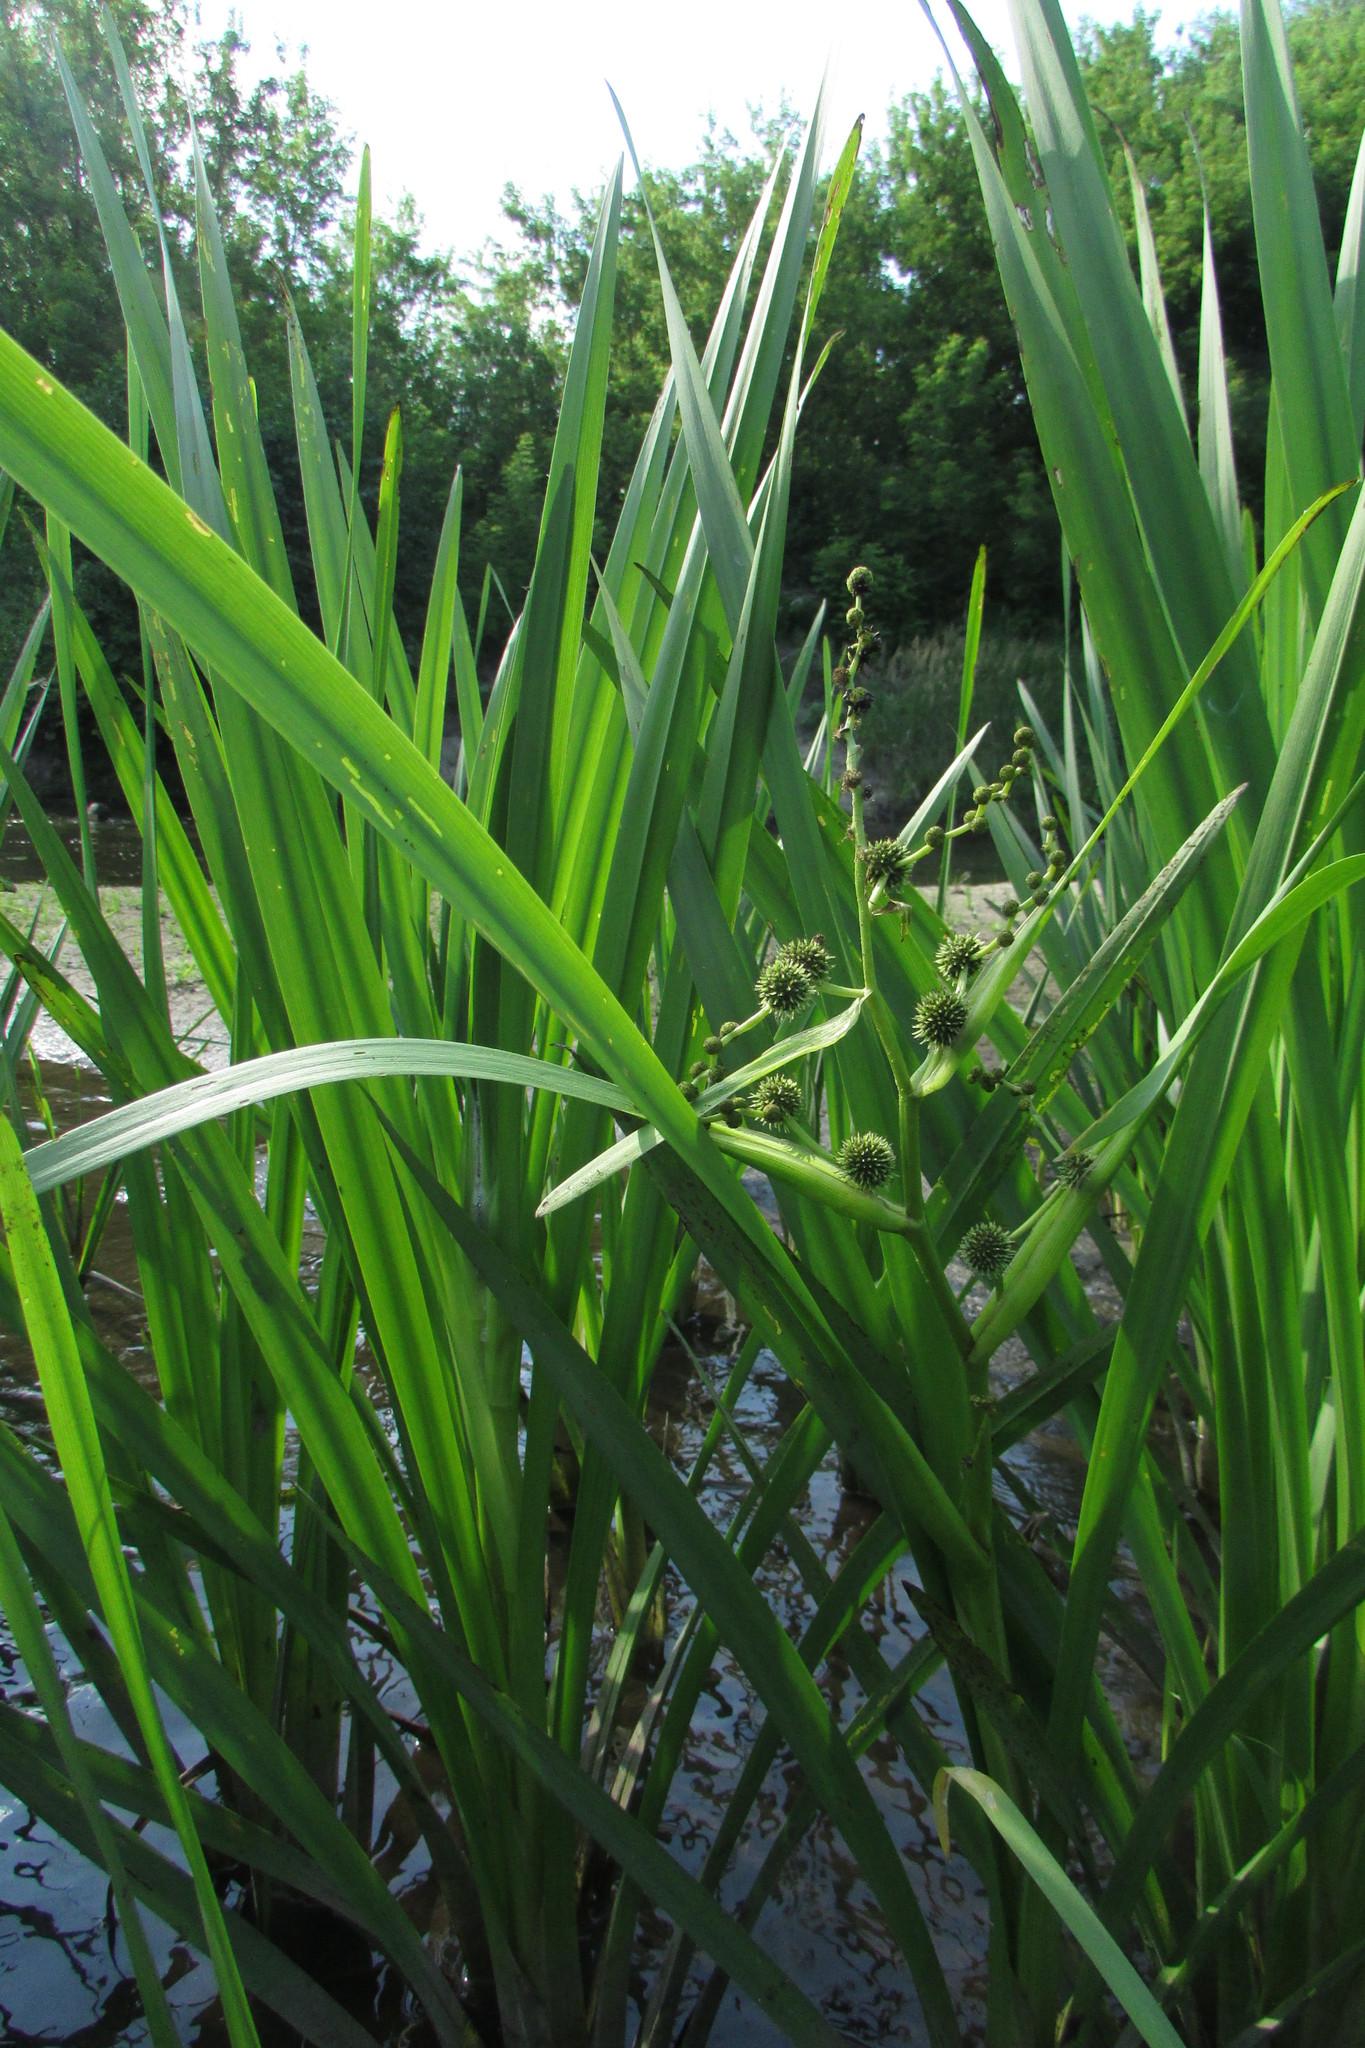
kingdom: Plantae
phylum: Tracheophyta
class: Liliopsida
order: Poales
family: Typhaceae
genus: Sparganium
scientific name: Sparganium erectum
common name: Branched bur-reed
